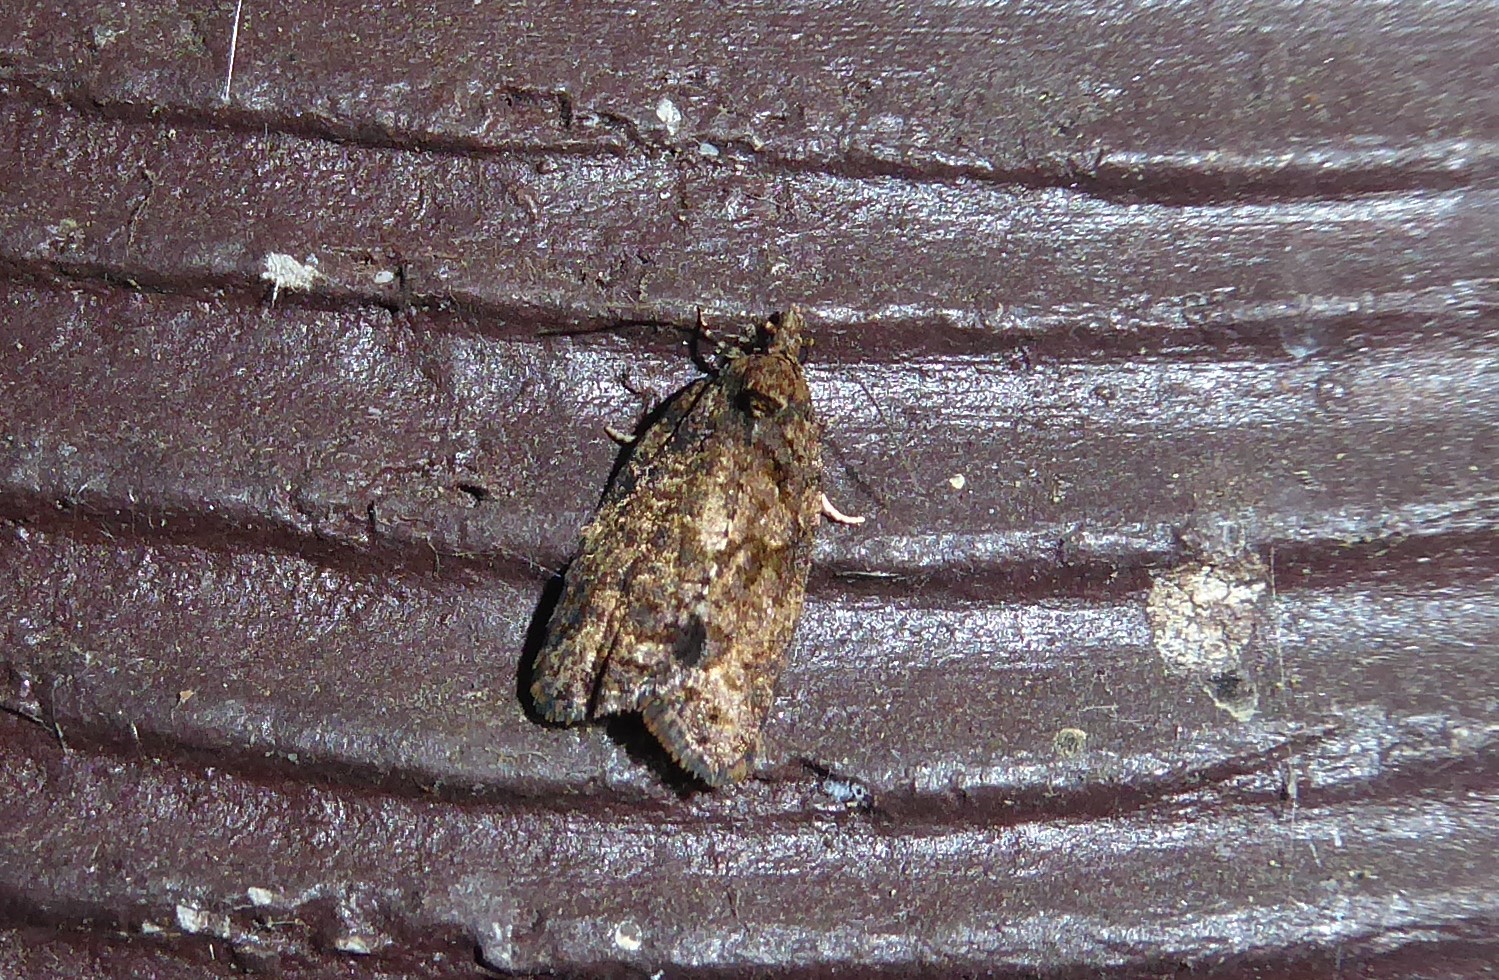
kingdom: Animalia
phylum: Arthropoda
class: Insecta
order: Lepidoptera
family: Tortricidae
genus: Capua
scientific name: Capua intractana
